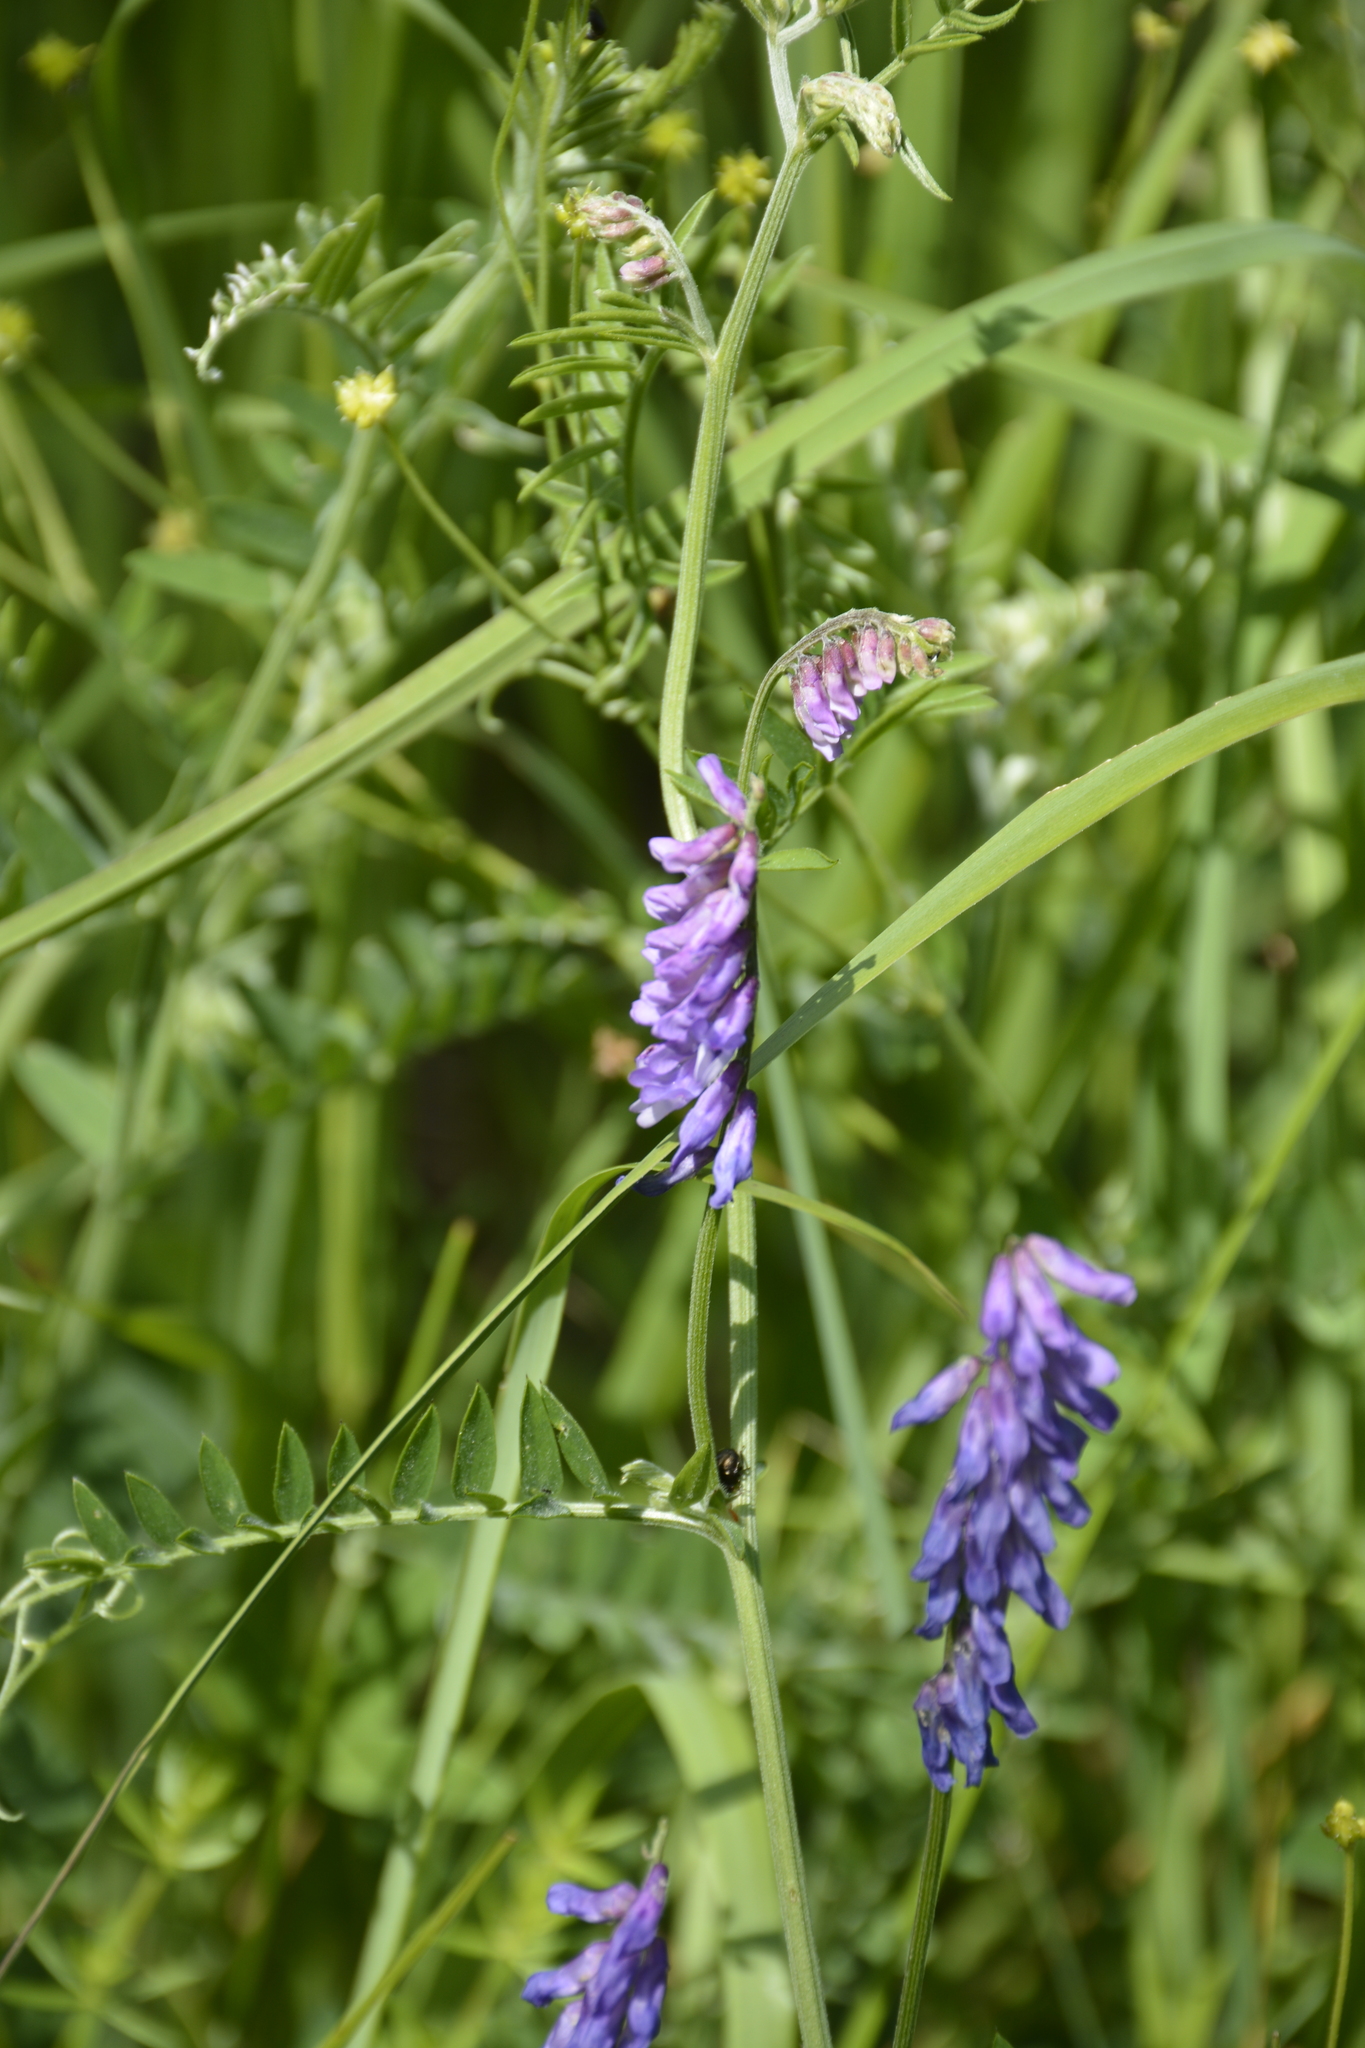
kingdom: Plantae
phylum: Tracheophyta
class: Magnoliopsida
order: Fabales
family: Fabaceae
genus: Vicia
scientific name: Vicia cracca
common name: Bird vetch
